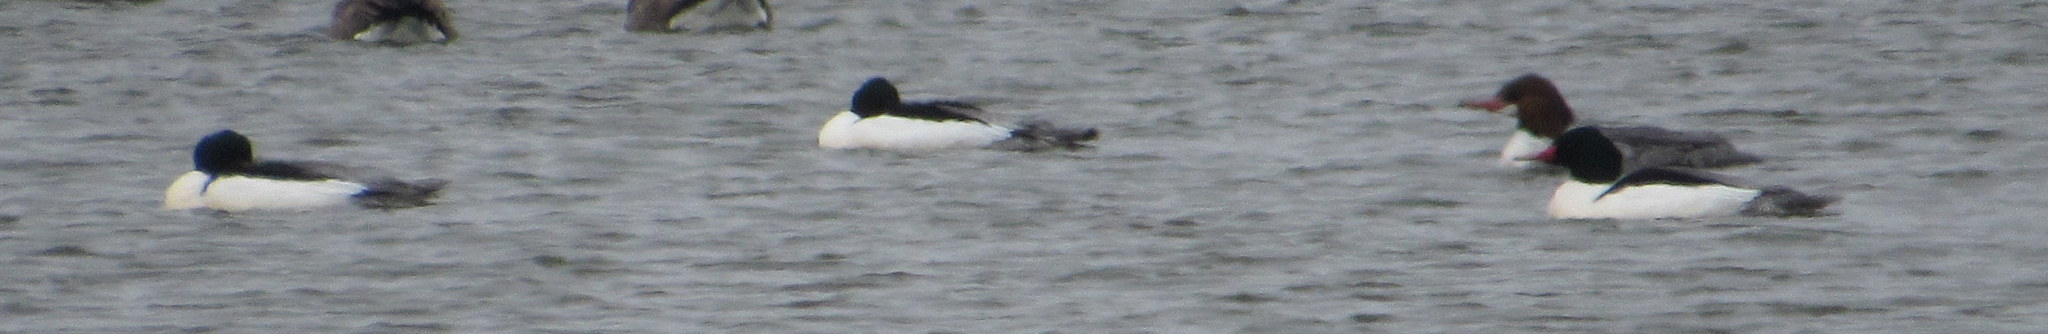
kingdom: Animalia
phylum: Chordata
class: Aves
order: Anseriformes
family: Anatidae
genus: Mergus
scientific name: Mergus merganser
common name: Common merganser
